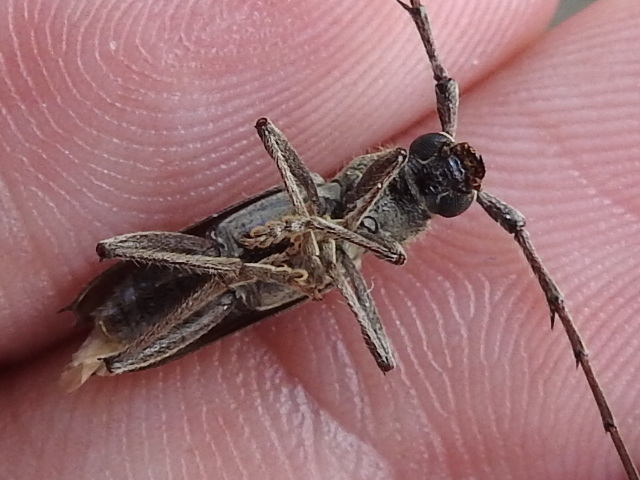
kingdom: Animalia
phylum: Arthropoda
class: Insecta
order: Coleoptera
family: Cerambycidae
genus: Elaphidion
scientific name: Elaphidion mucronatum
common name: Spined oak borer
